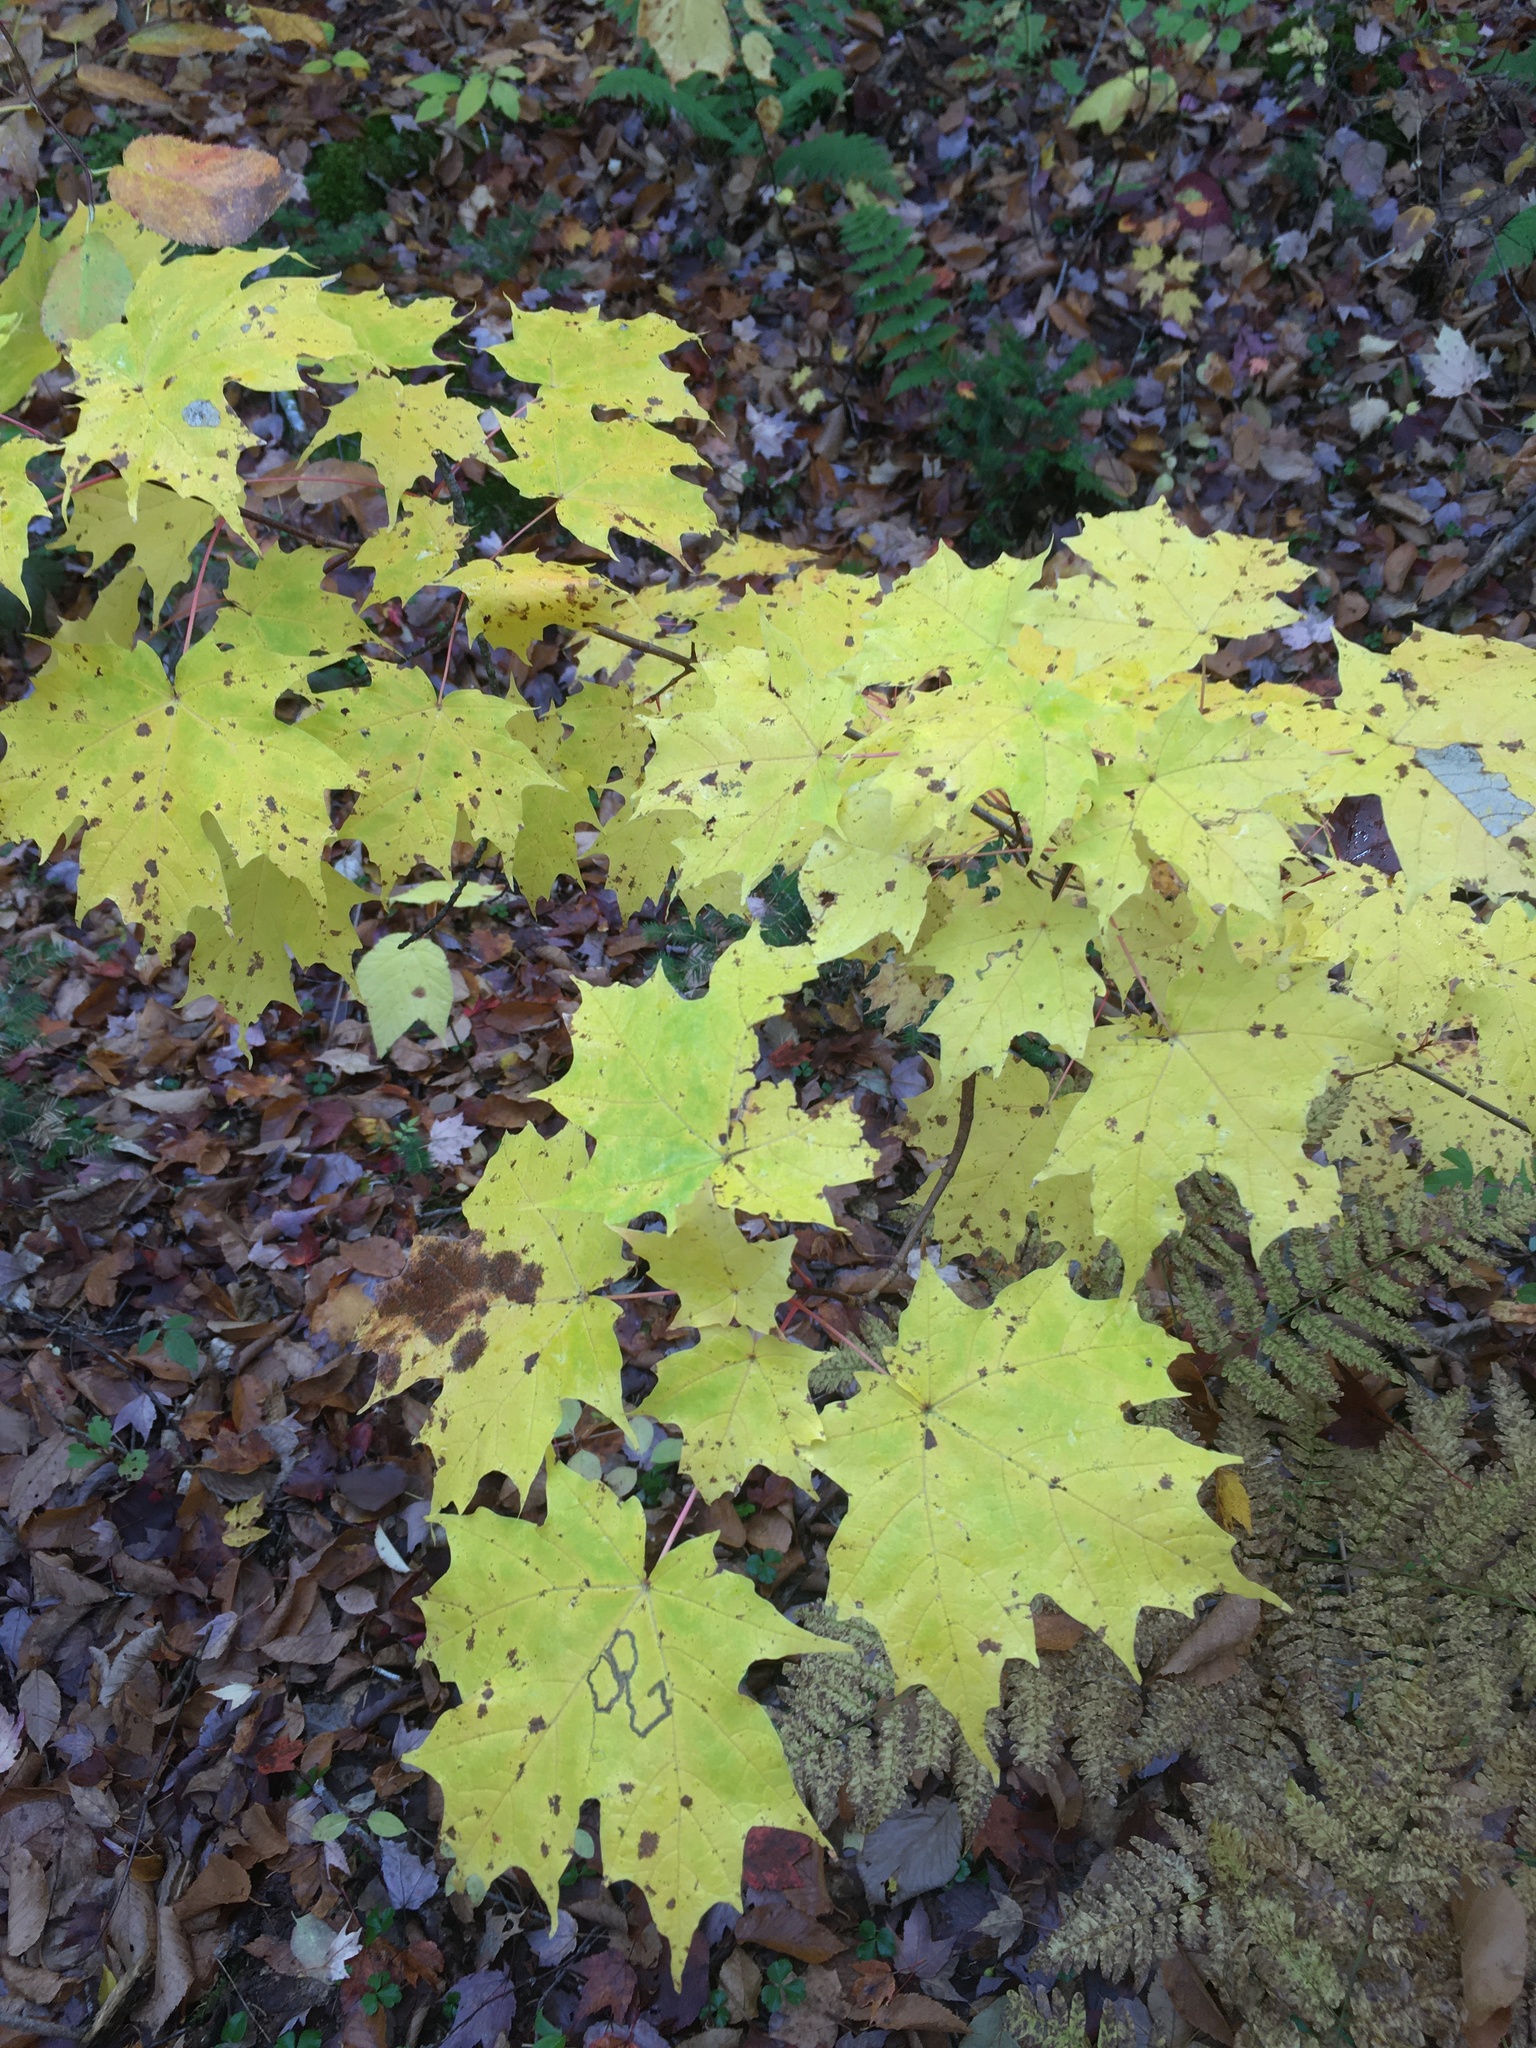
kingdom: Plantae
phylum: Tracheophyta
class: Magnoliopsida
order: Sapindales
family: Sapindaceae
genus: Acer
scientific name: Acer saccharum
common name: Sugar maple
